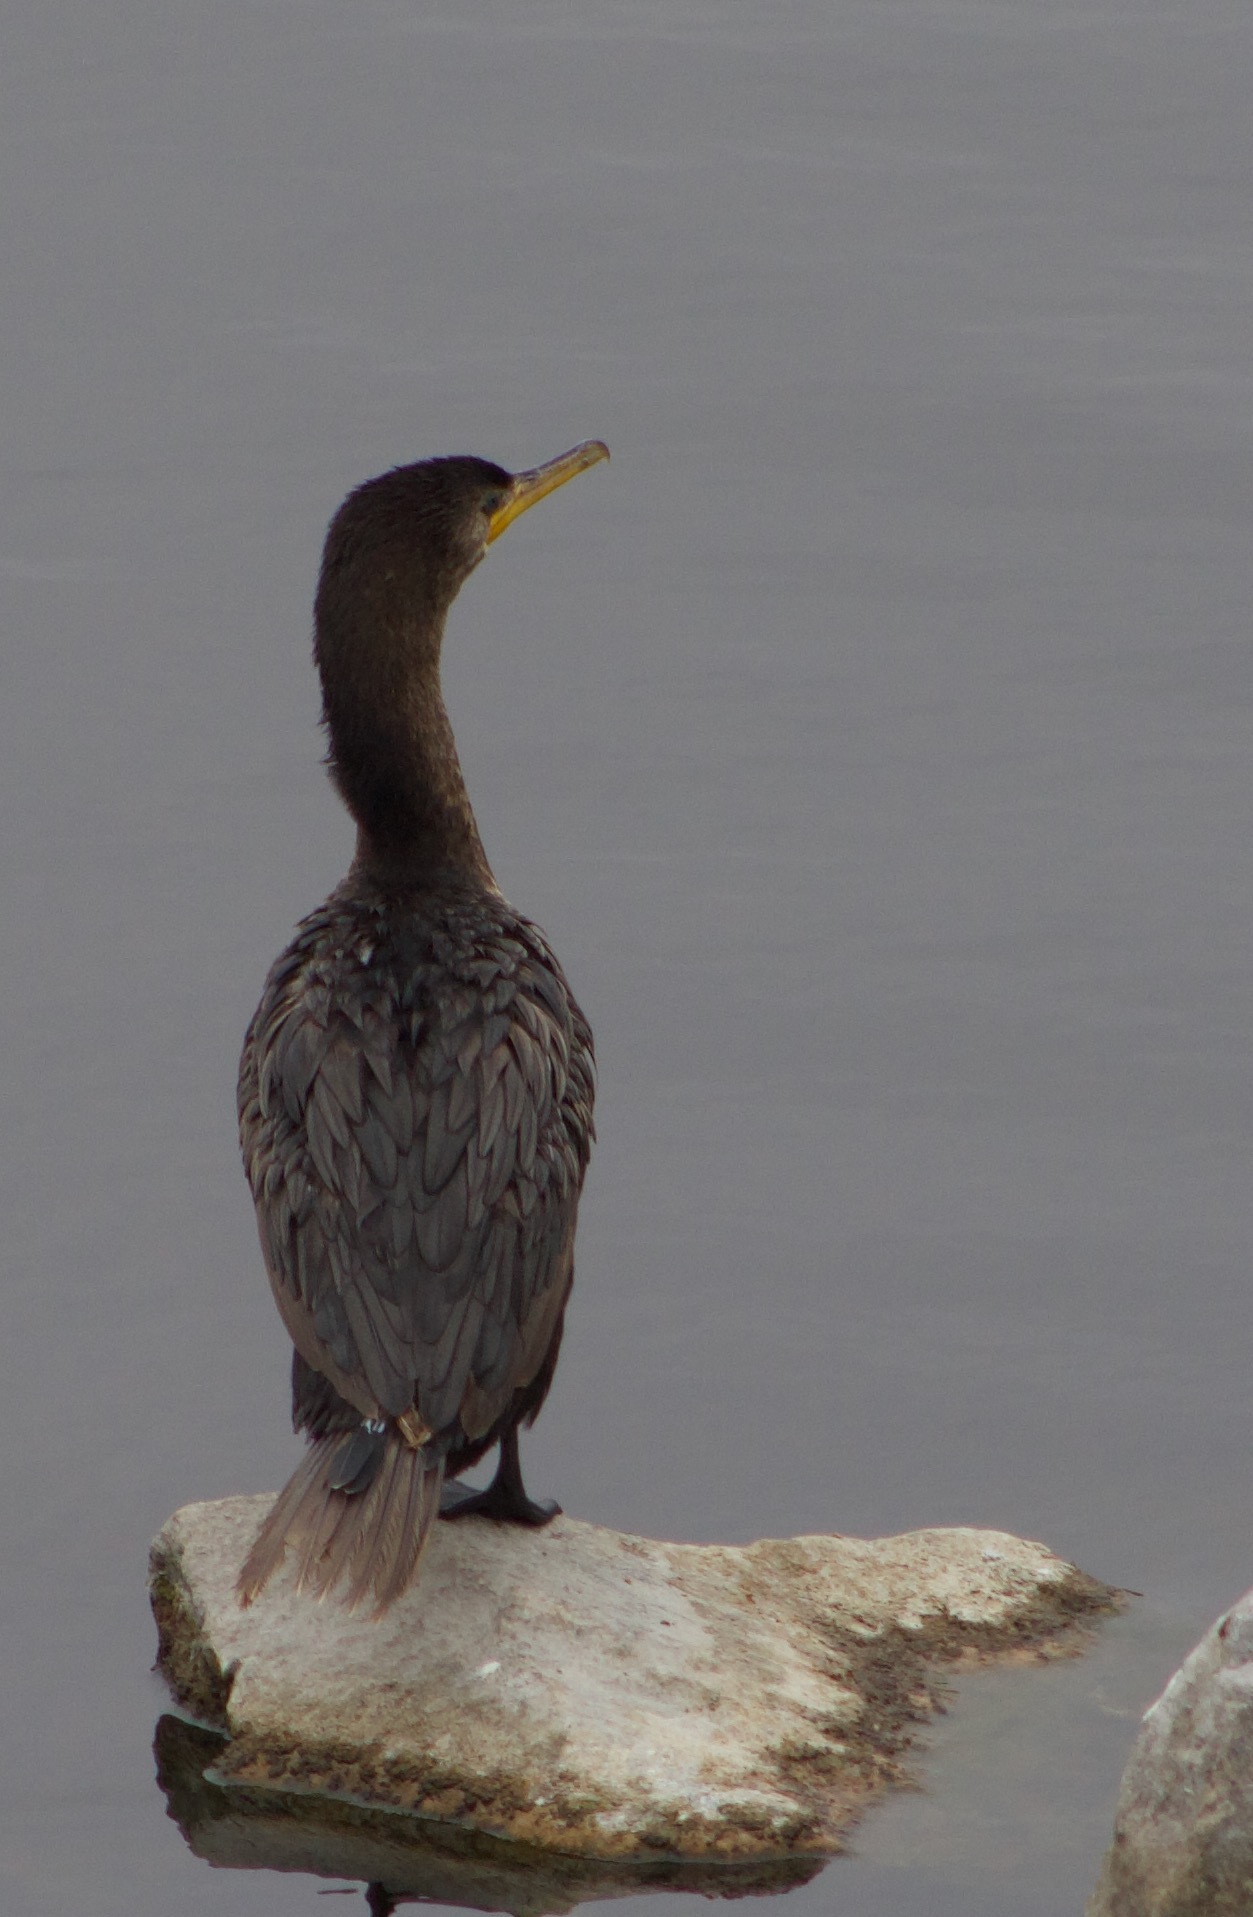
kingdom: Animalia
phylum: Chordata
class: Aves
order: Suliformes
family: Phalacrocoracidae
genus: Phalacrocorax
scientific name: Phalacrocorax brasilianus
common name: Neotropic cormorant
